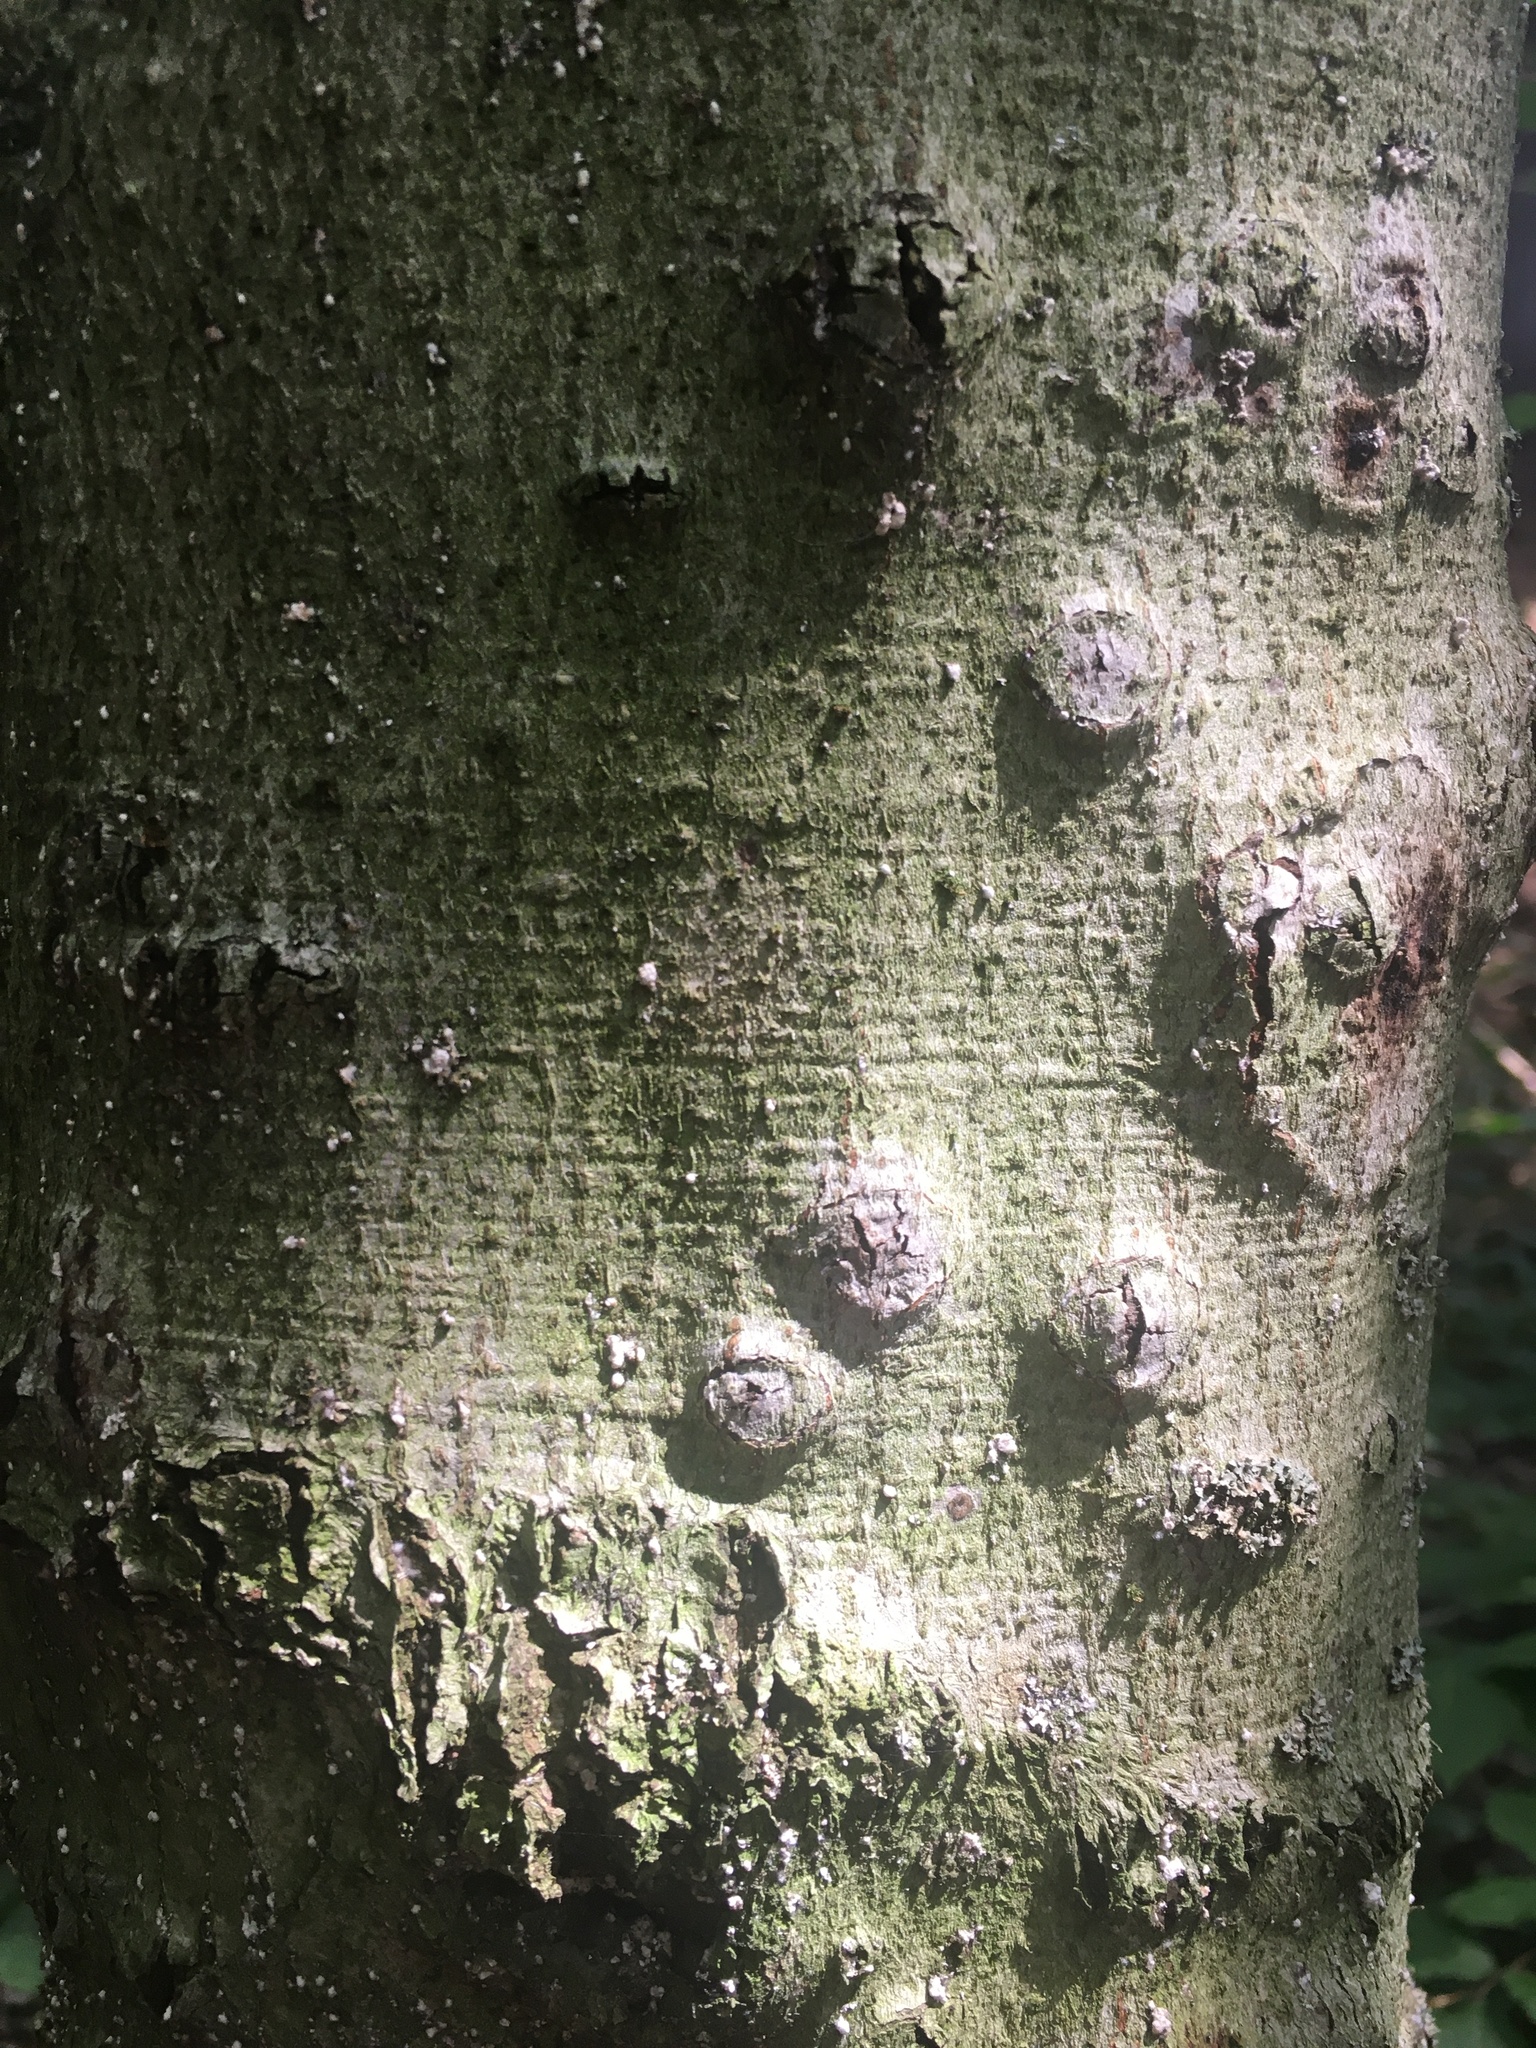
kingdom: Animalia
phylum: Arthropoda
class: Insecta
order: Hemiptera
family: Eriococcidae
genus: Cryptococcus
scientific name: Cryptococcus fagisuga
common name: Beech scale
